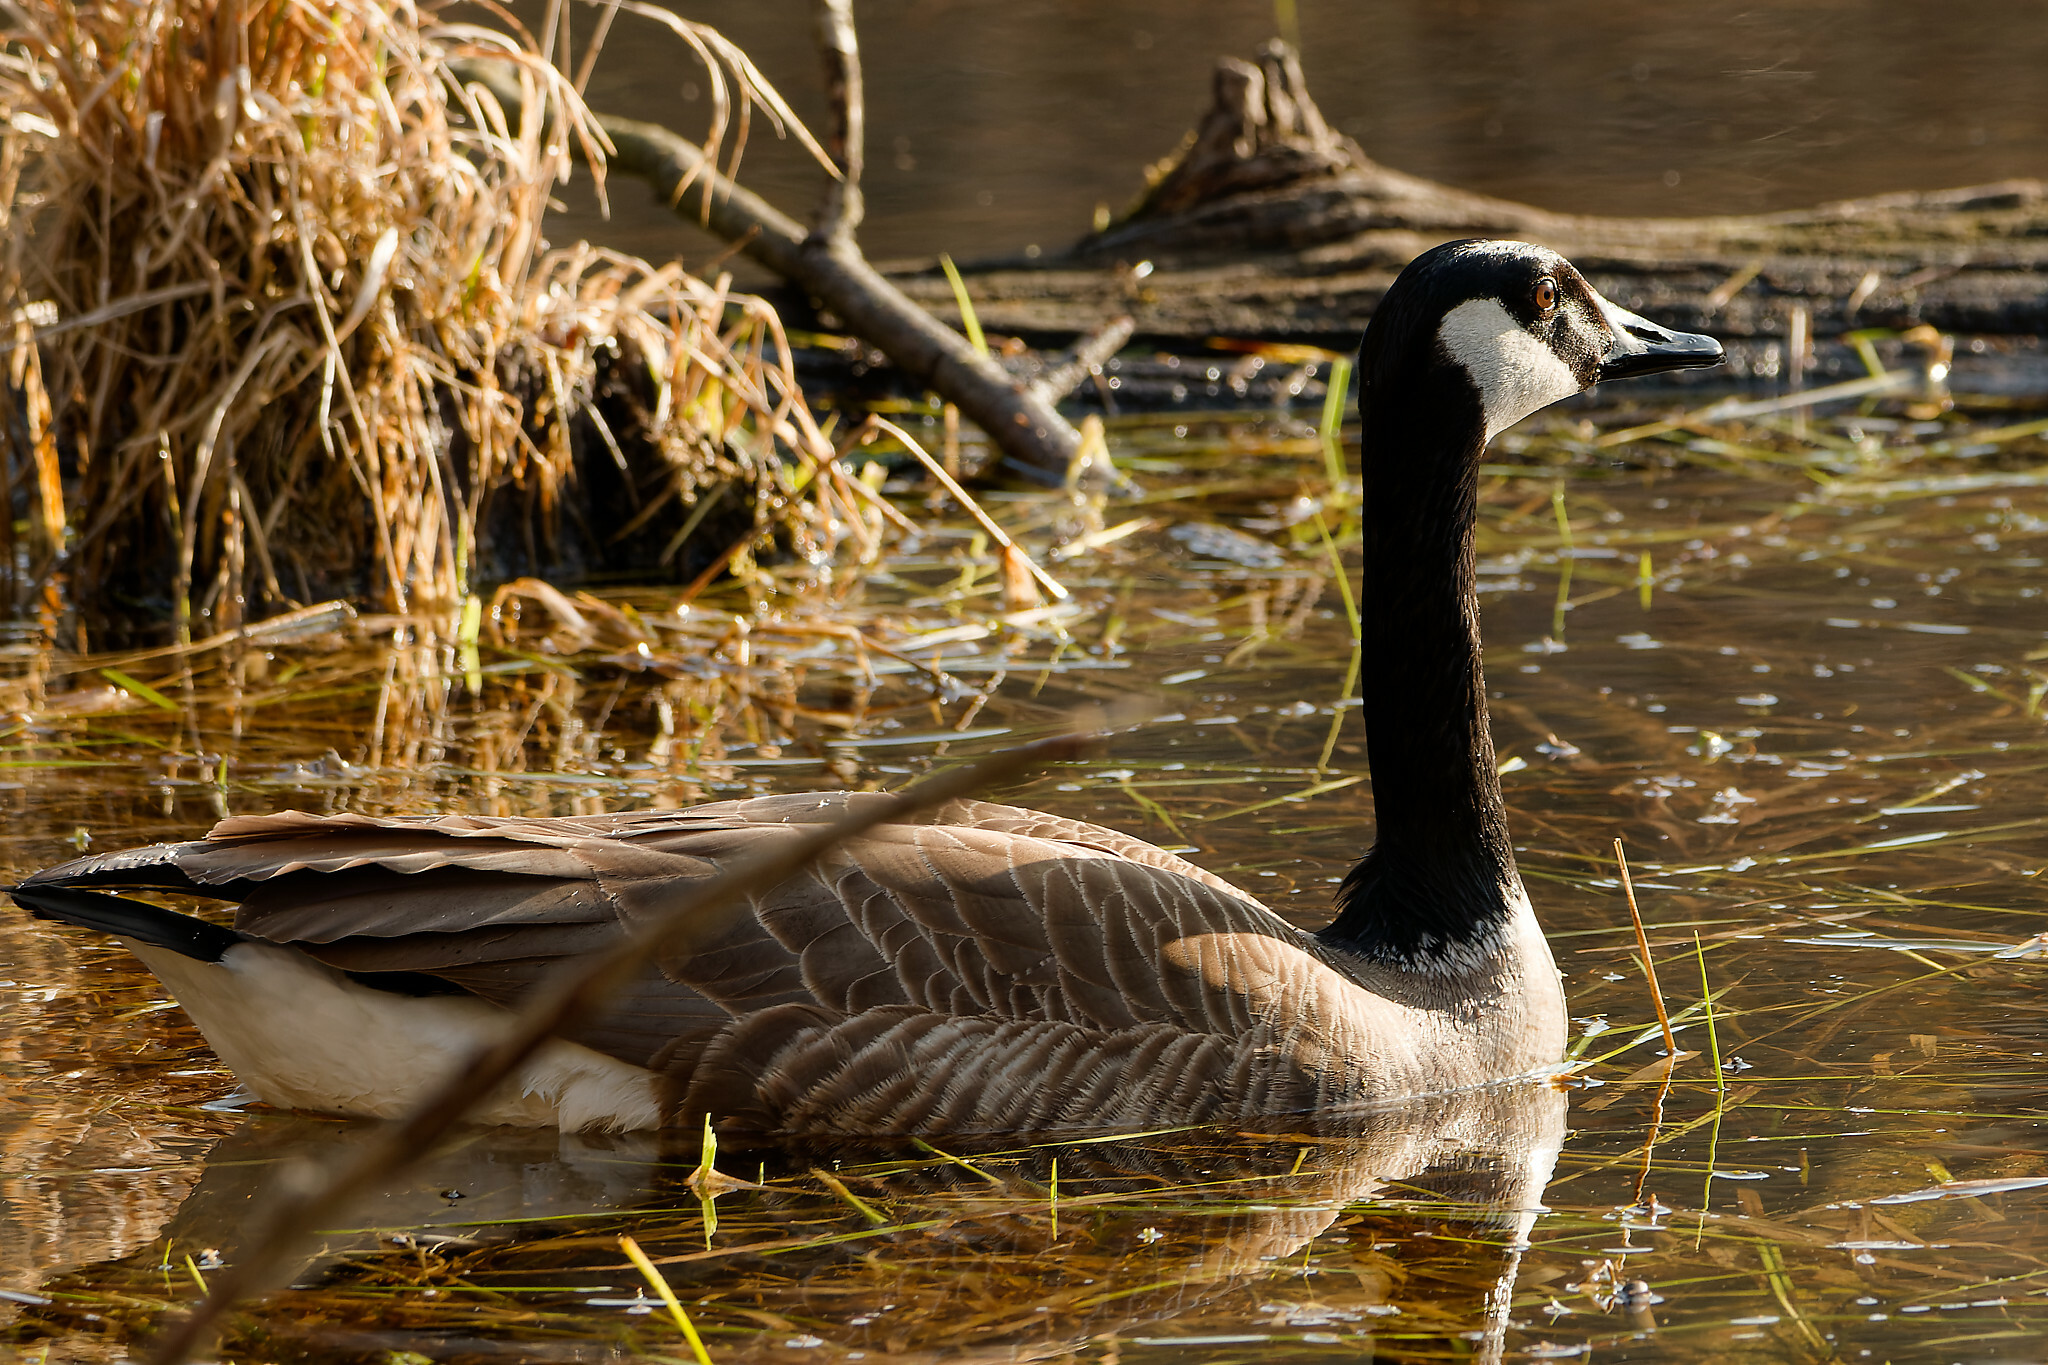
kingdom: Animalia
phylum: Chordata
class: Aves
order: Anseriformes
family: Anatidae
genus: Branta
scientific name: Branta canadensis
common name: Canada goose
